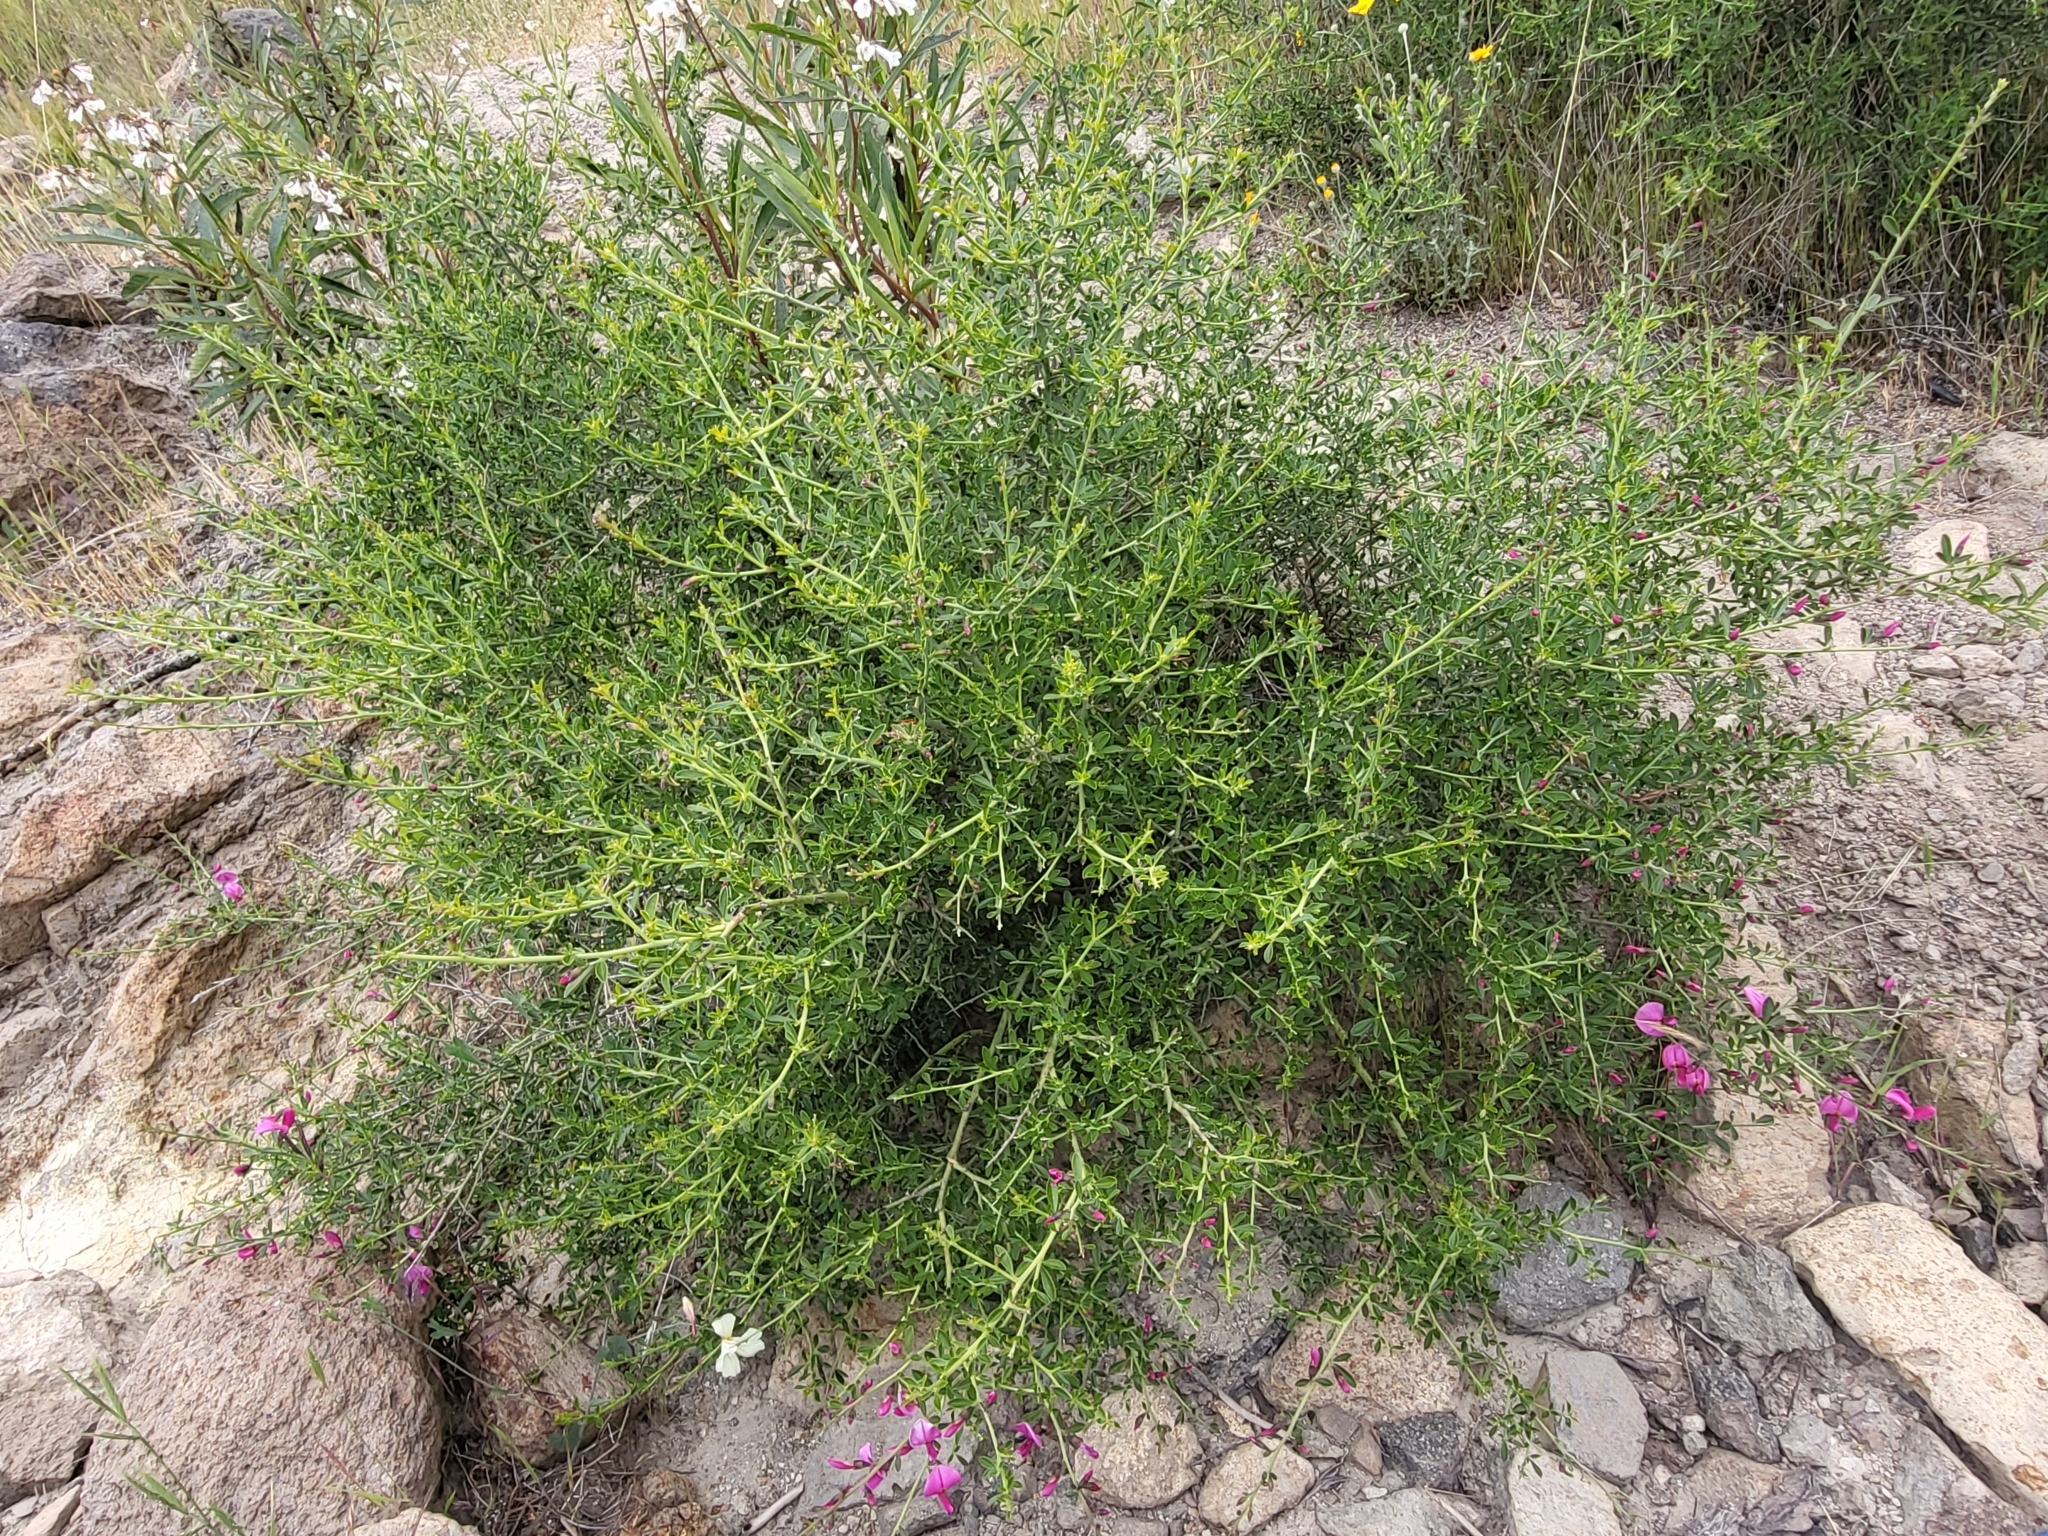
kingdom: Plantae
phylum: Tracheophyta
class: Magnoliopsida
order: Fabales
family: Fabaceae
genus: Pickeringia
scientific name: Pickeringia montana
